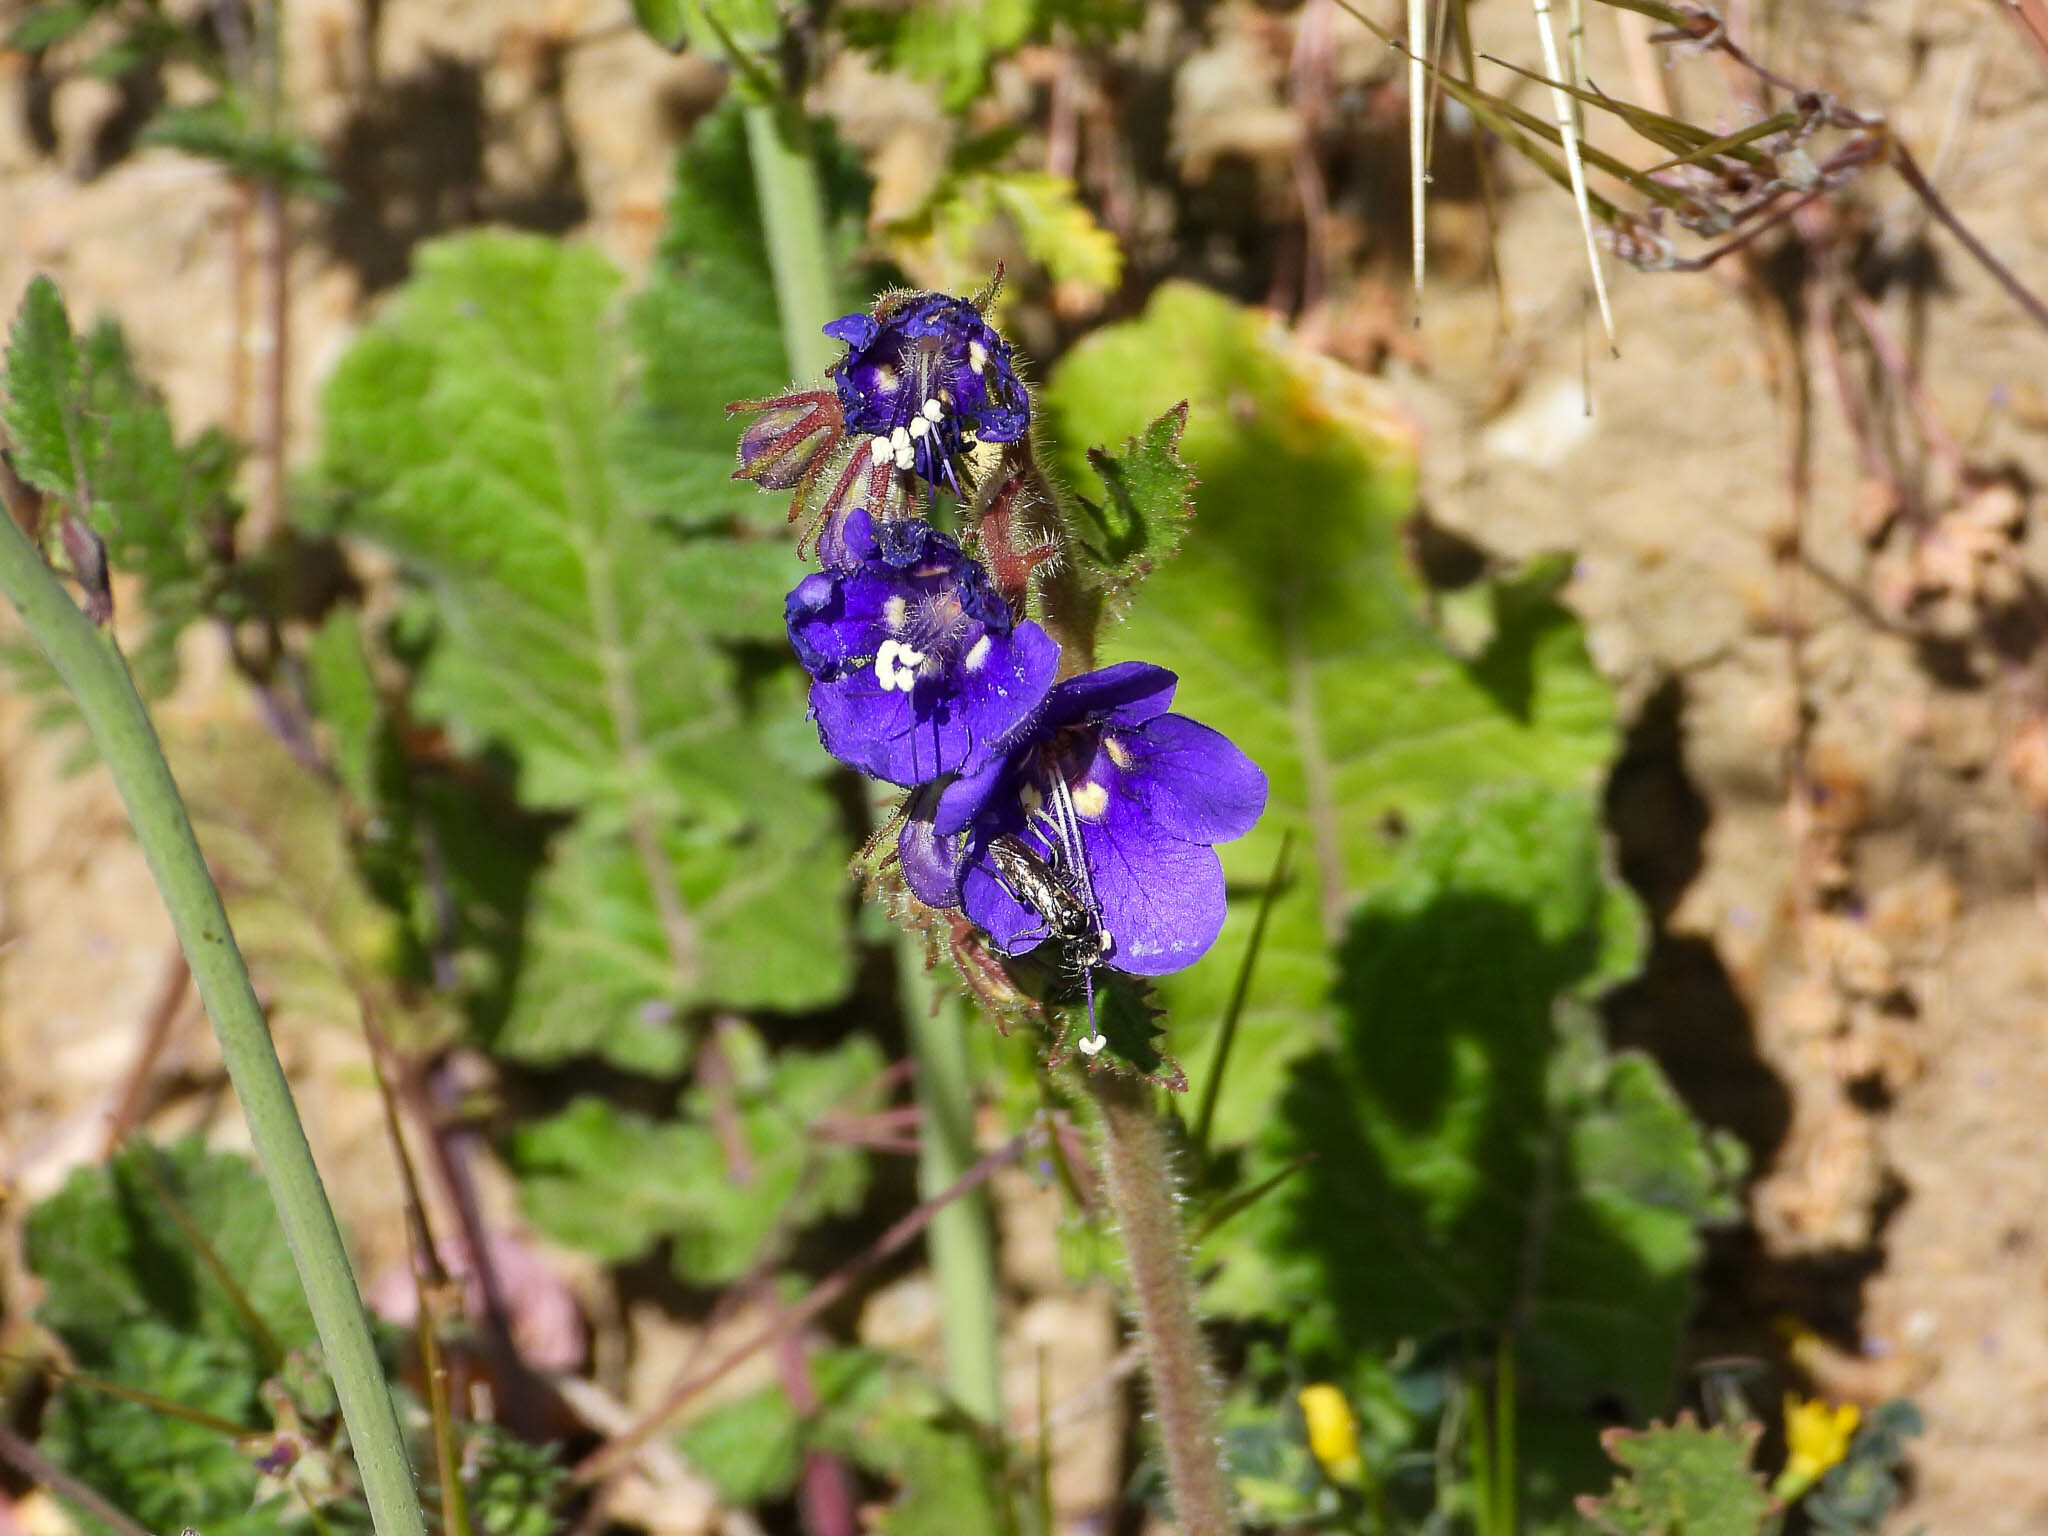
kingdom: Plantae
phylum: Tracheophyta
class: Magnoliopsida
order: Boraginales
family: Hydrophyllaceae
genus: Phacelia
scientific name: Phacelia parryi
